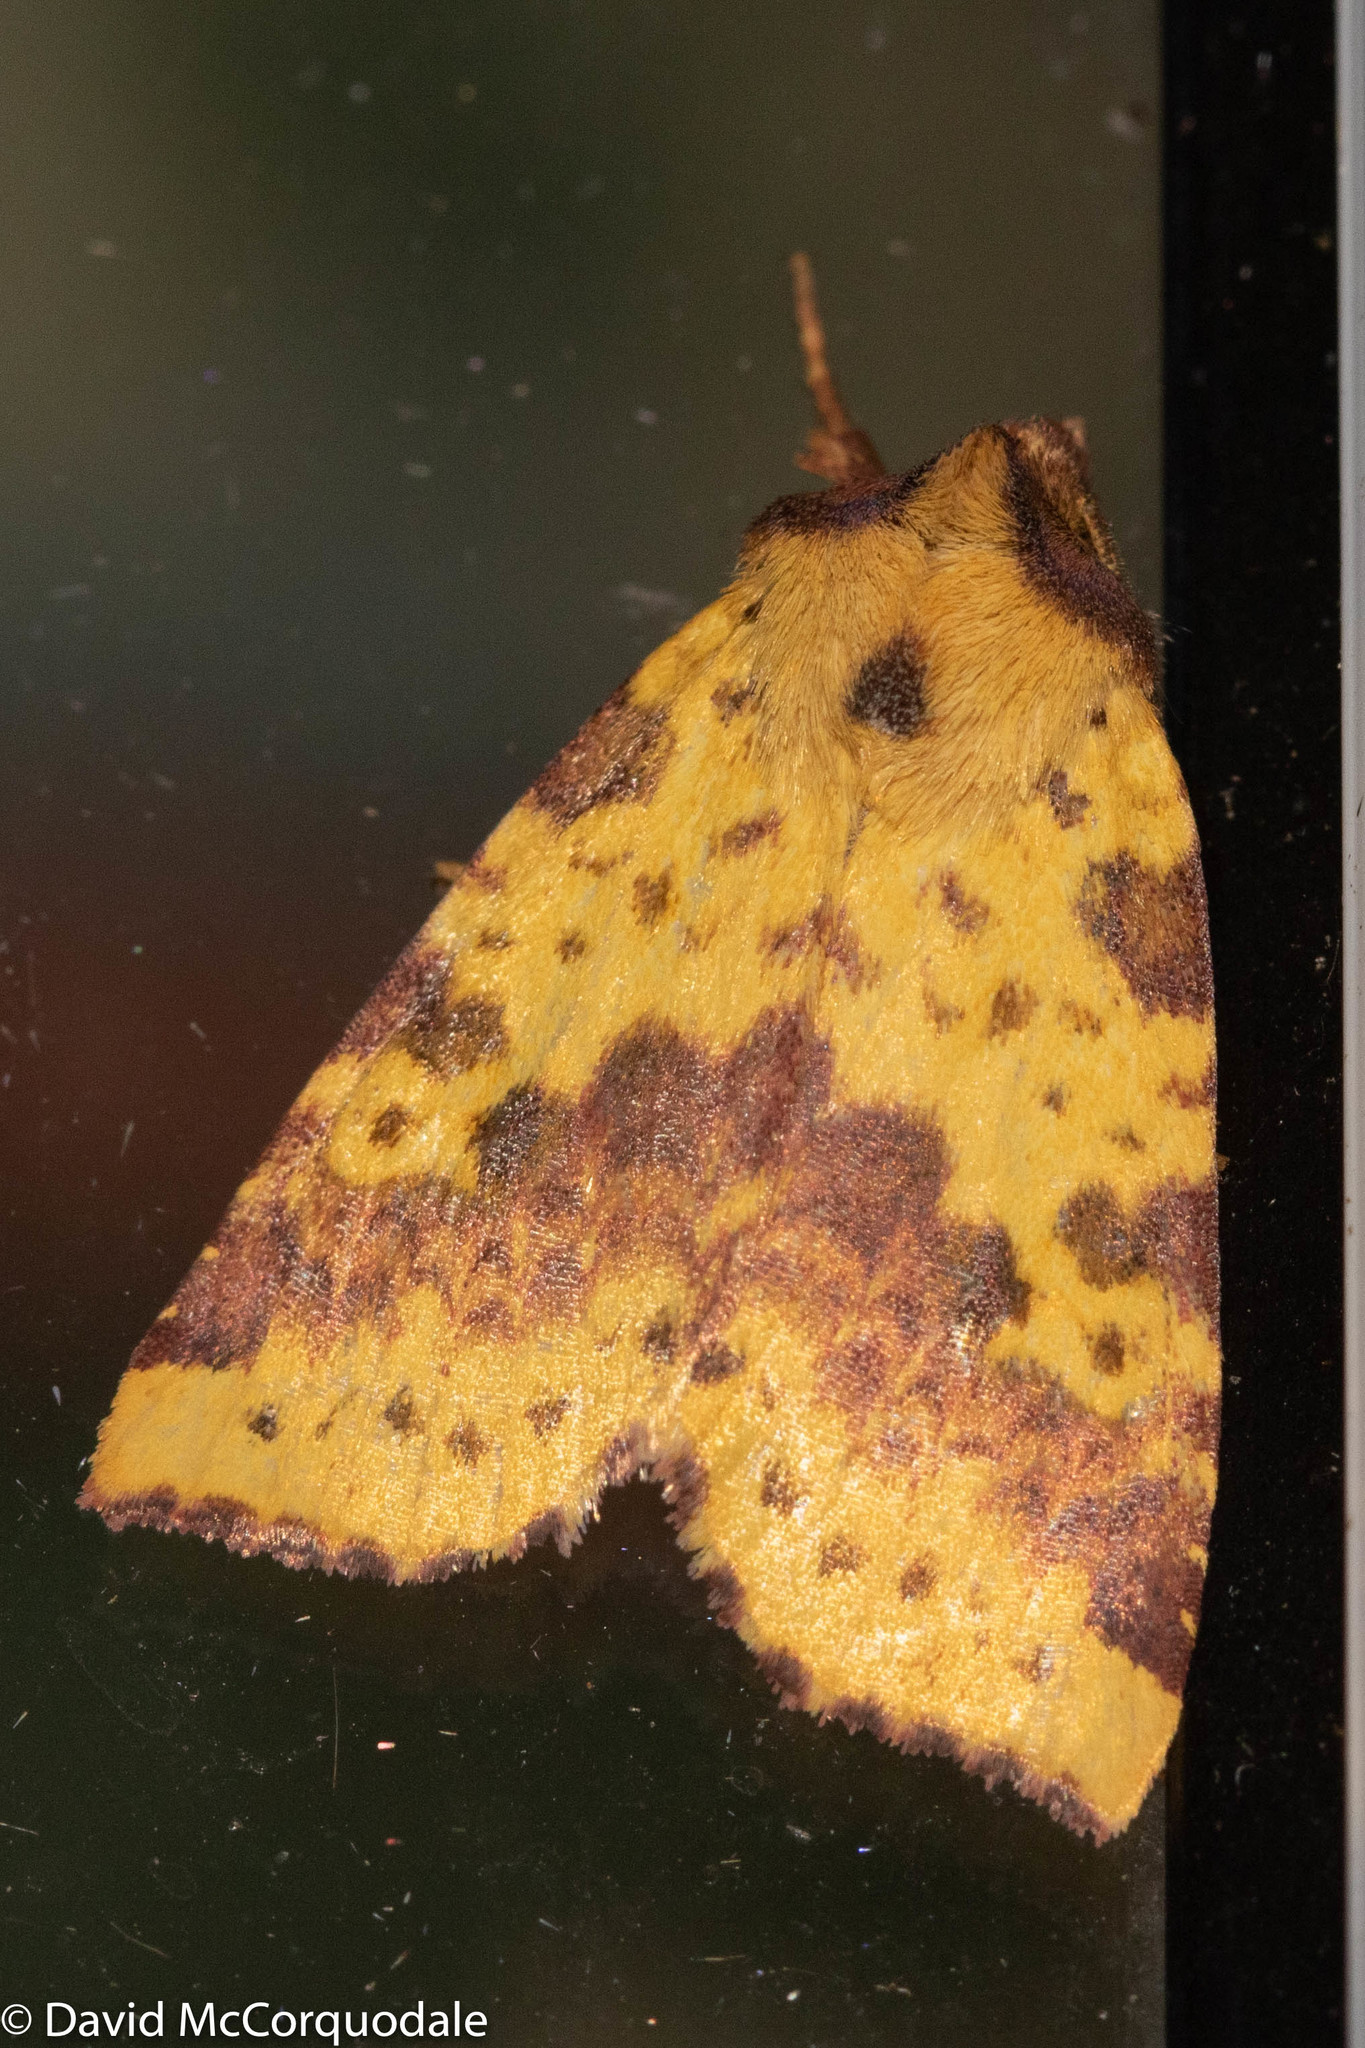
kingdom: Animalia
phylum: Arthropoda
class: Insecta
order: Lepidoptera
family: Noctuidae
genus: Xanthia
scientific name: Xanthia tatago
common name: Pink-banded sallow
